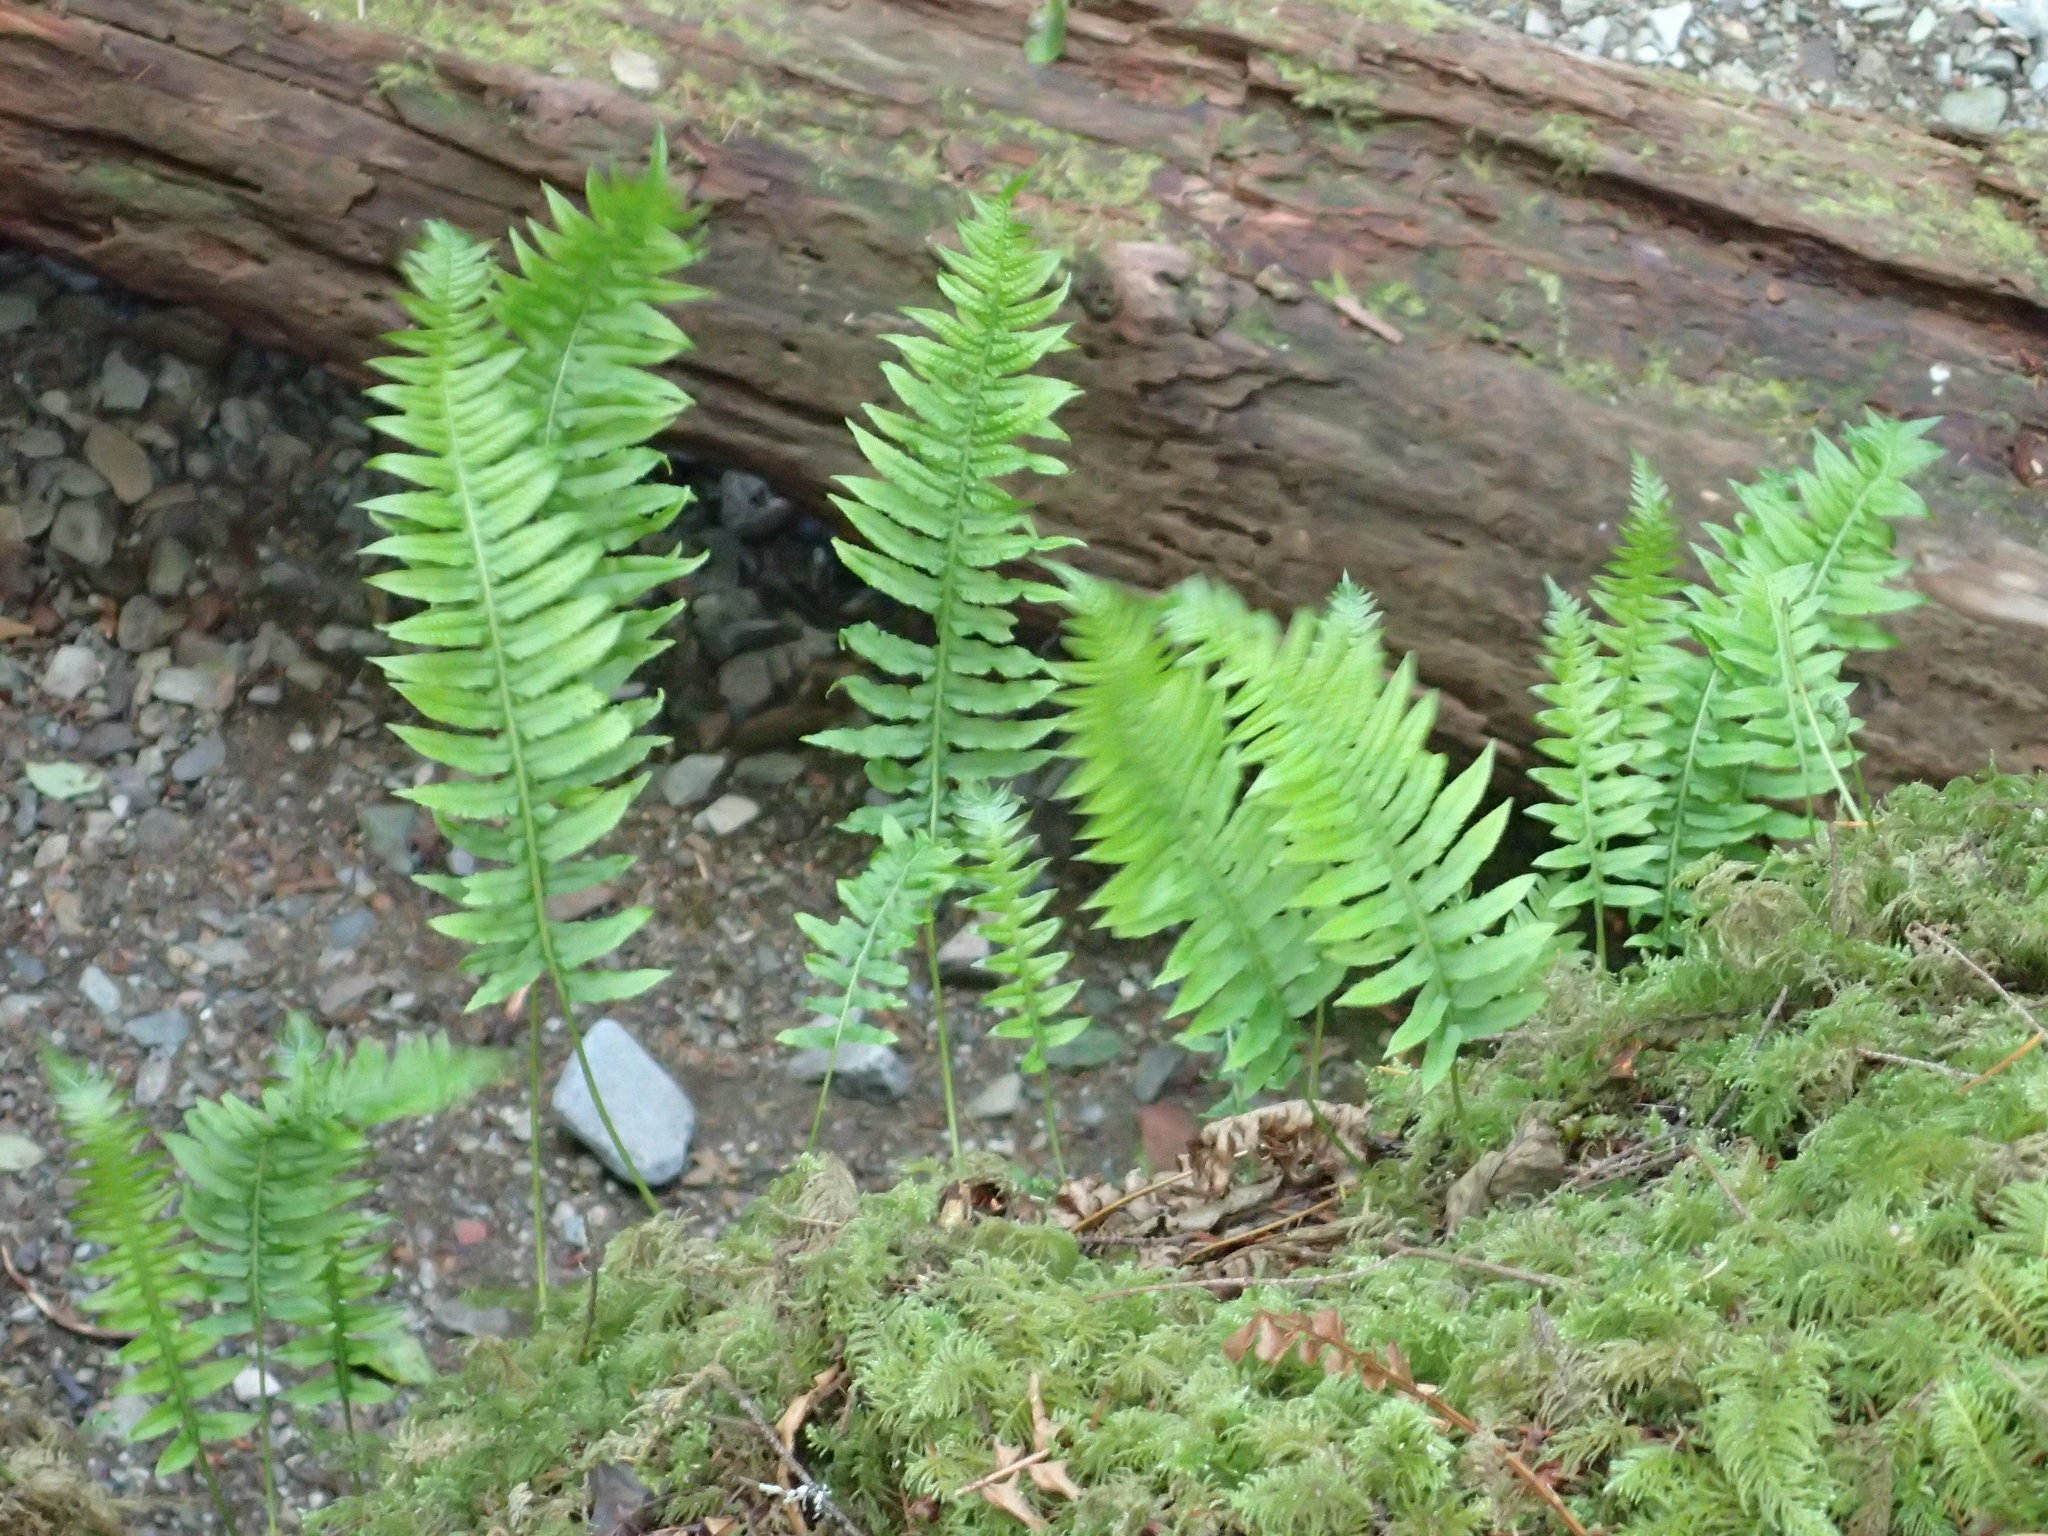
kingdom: Plantae
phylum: Tracheophyta
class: Polypodiopsida
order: Polypodiales
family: Polypodiaceae
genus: Polypodium
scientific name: Polypodium glycyrrhiza
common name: Licorice fern
